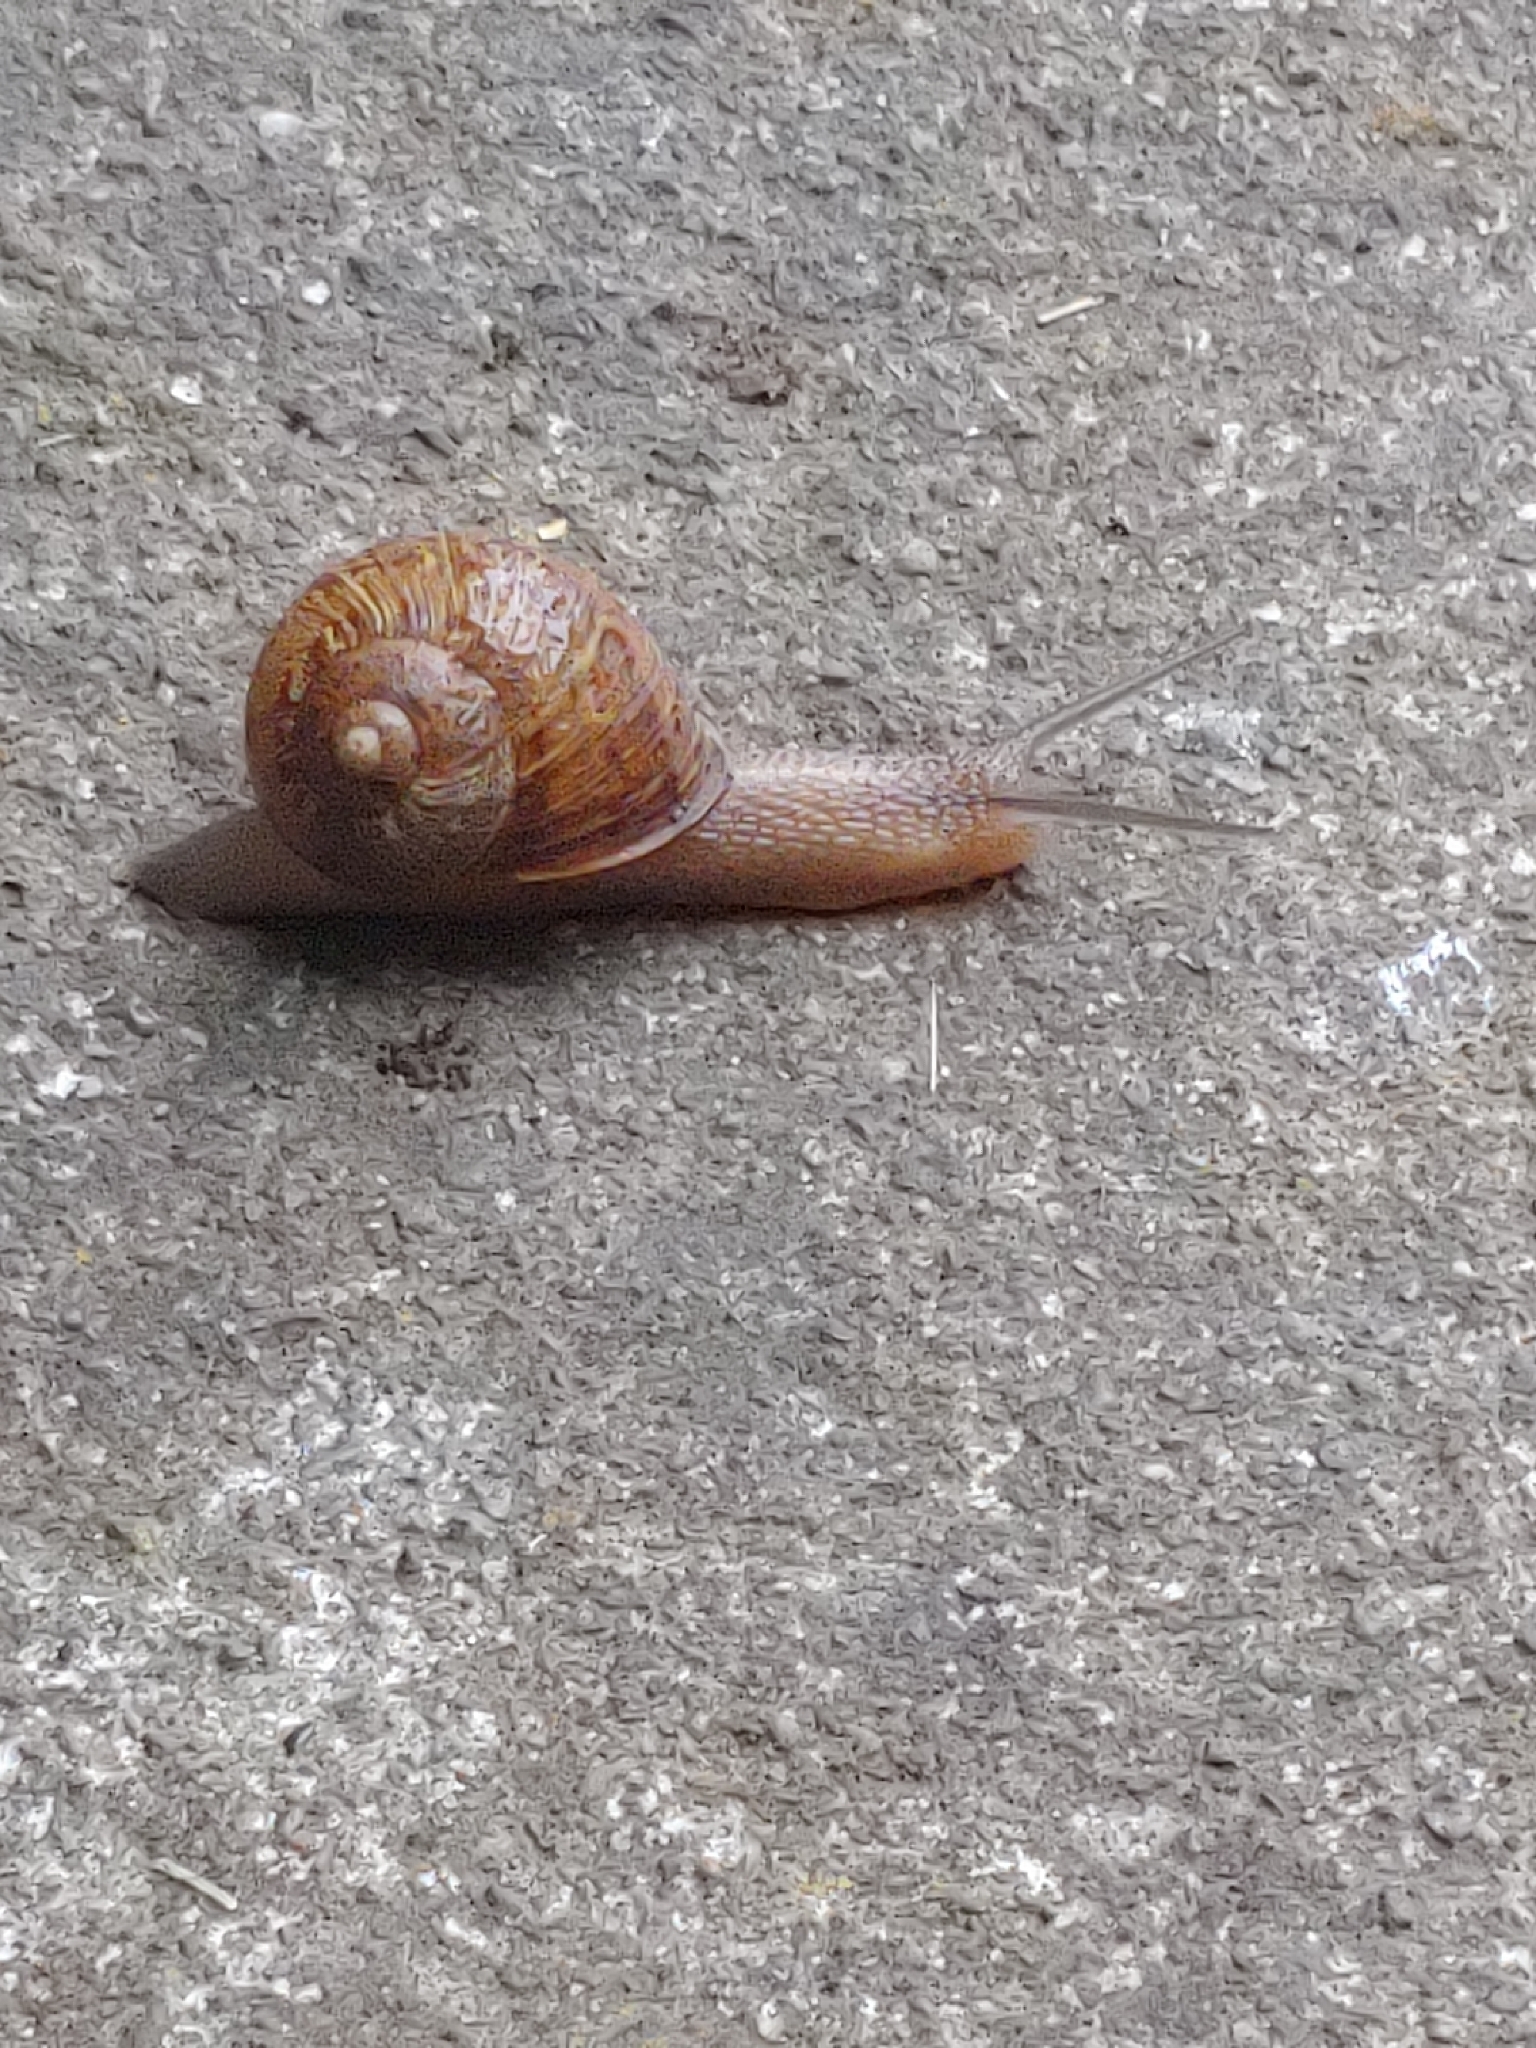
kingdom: Animalia
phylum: Mollusca
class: Gastropoda
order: Stylommatophora
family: Helicidae
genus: Cornu
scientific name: Cornu aspersum
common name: Brown garden snail
